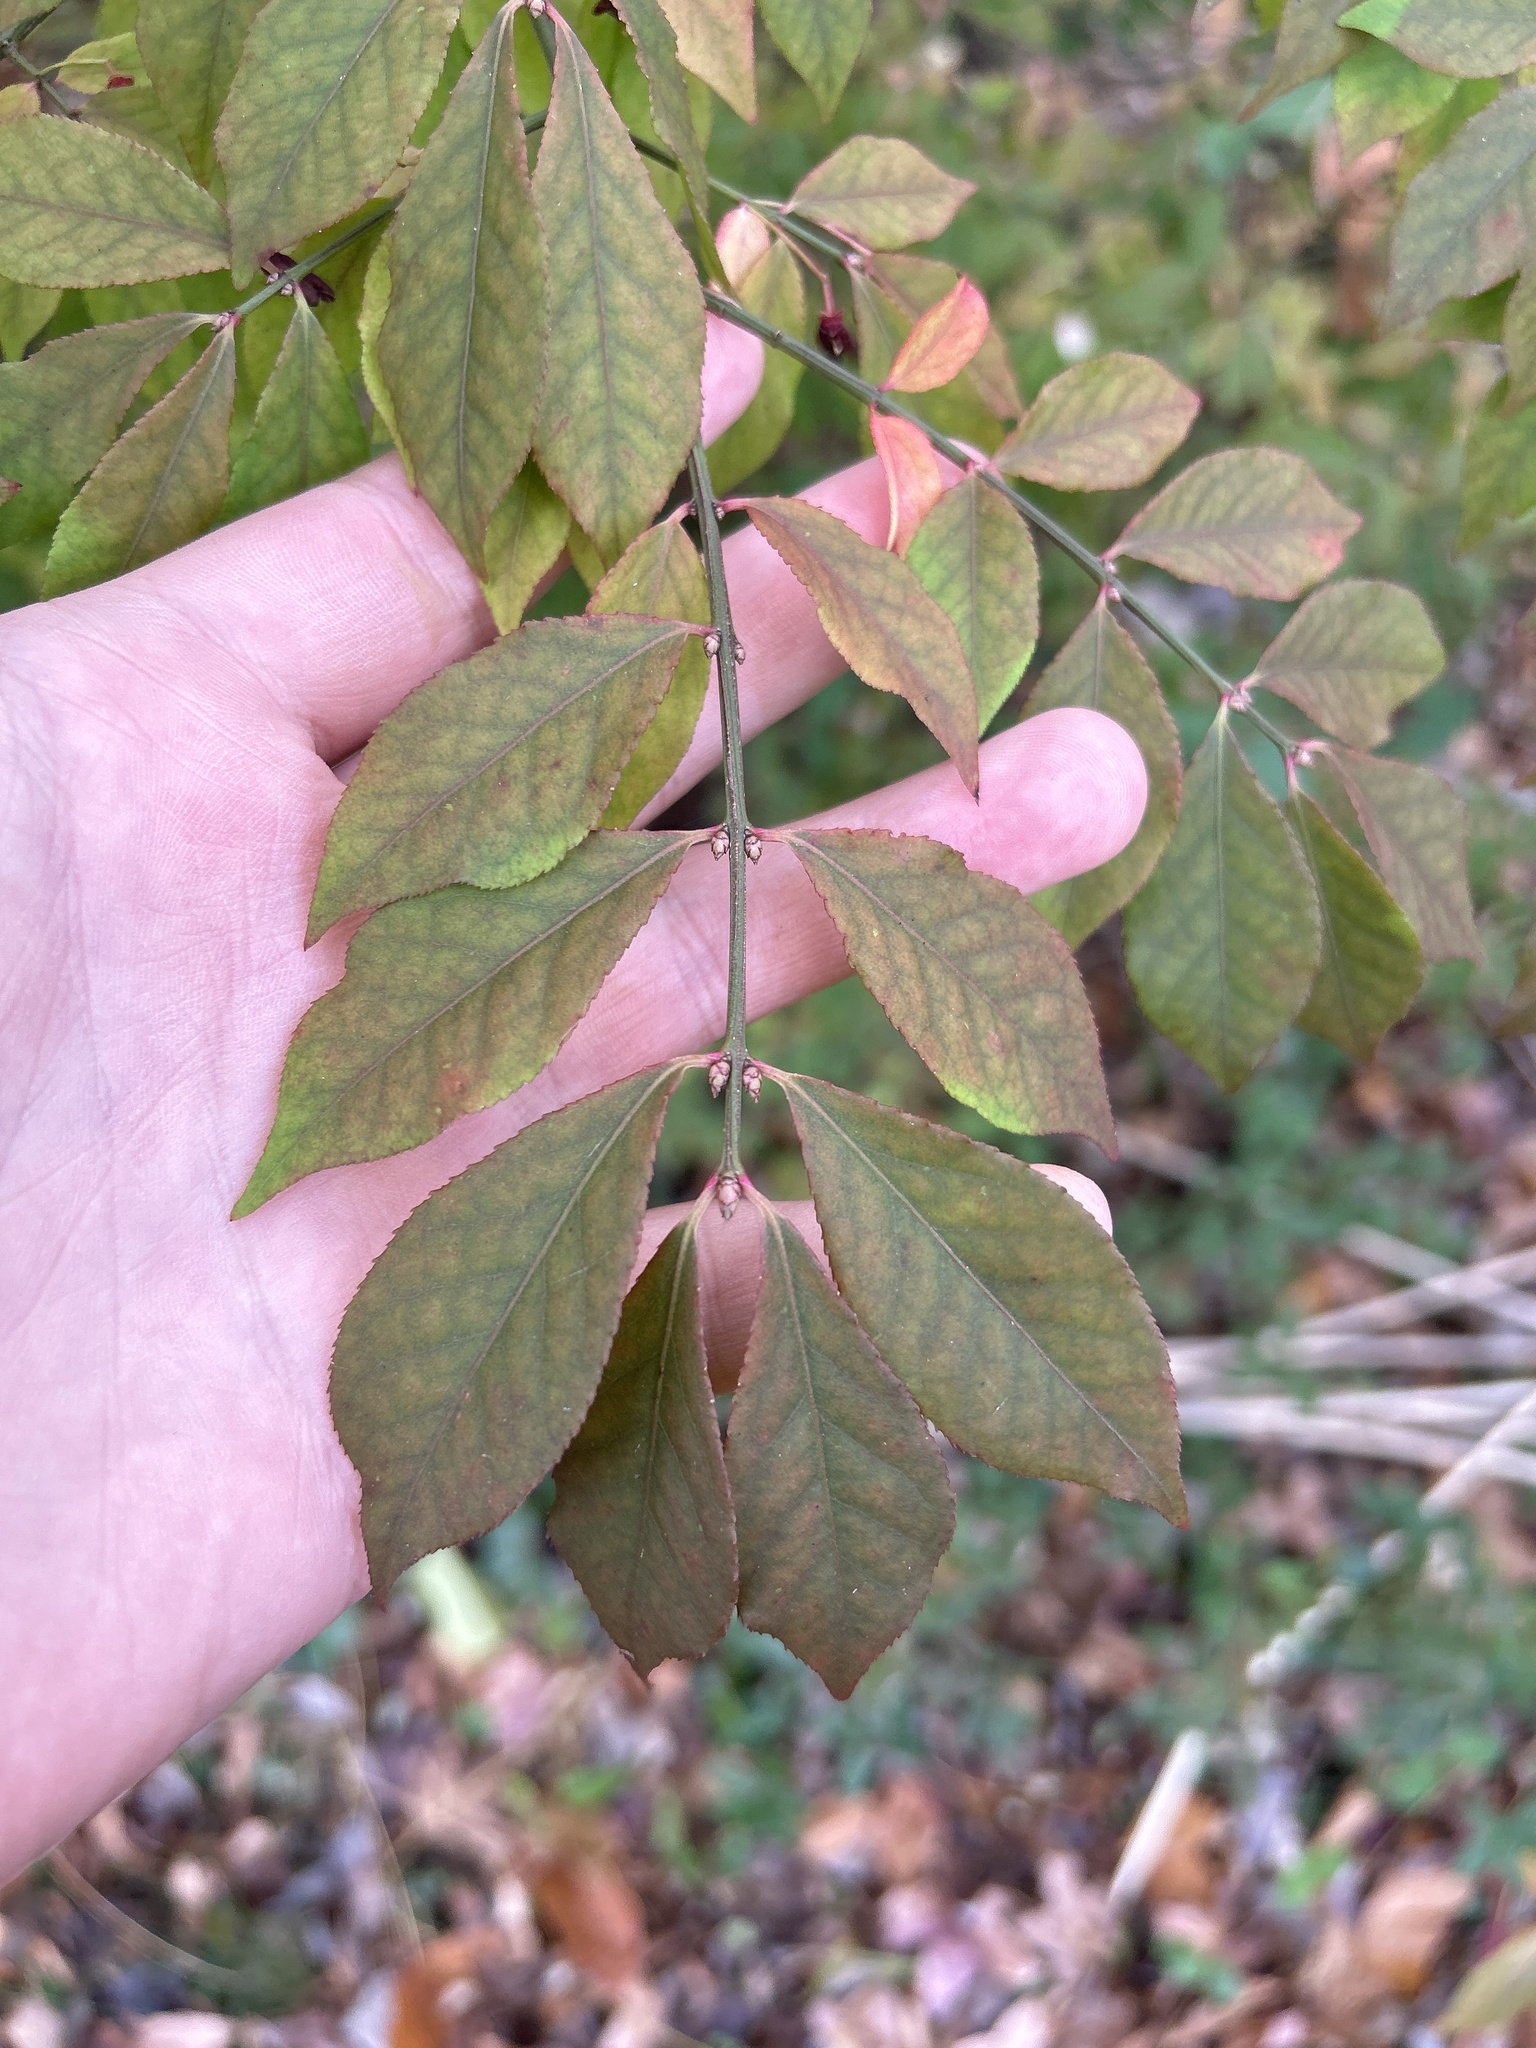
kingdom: Plantae
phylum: Tracheophyta
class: Magnoliopsida
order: Celastrales
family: Celastraceae
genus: Euonymus
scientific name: Euonymus alatus
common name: Winged euonymus
